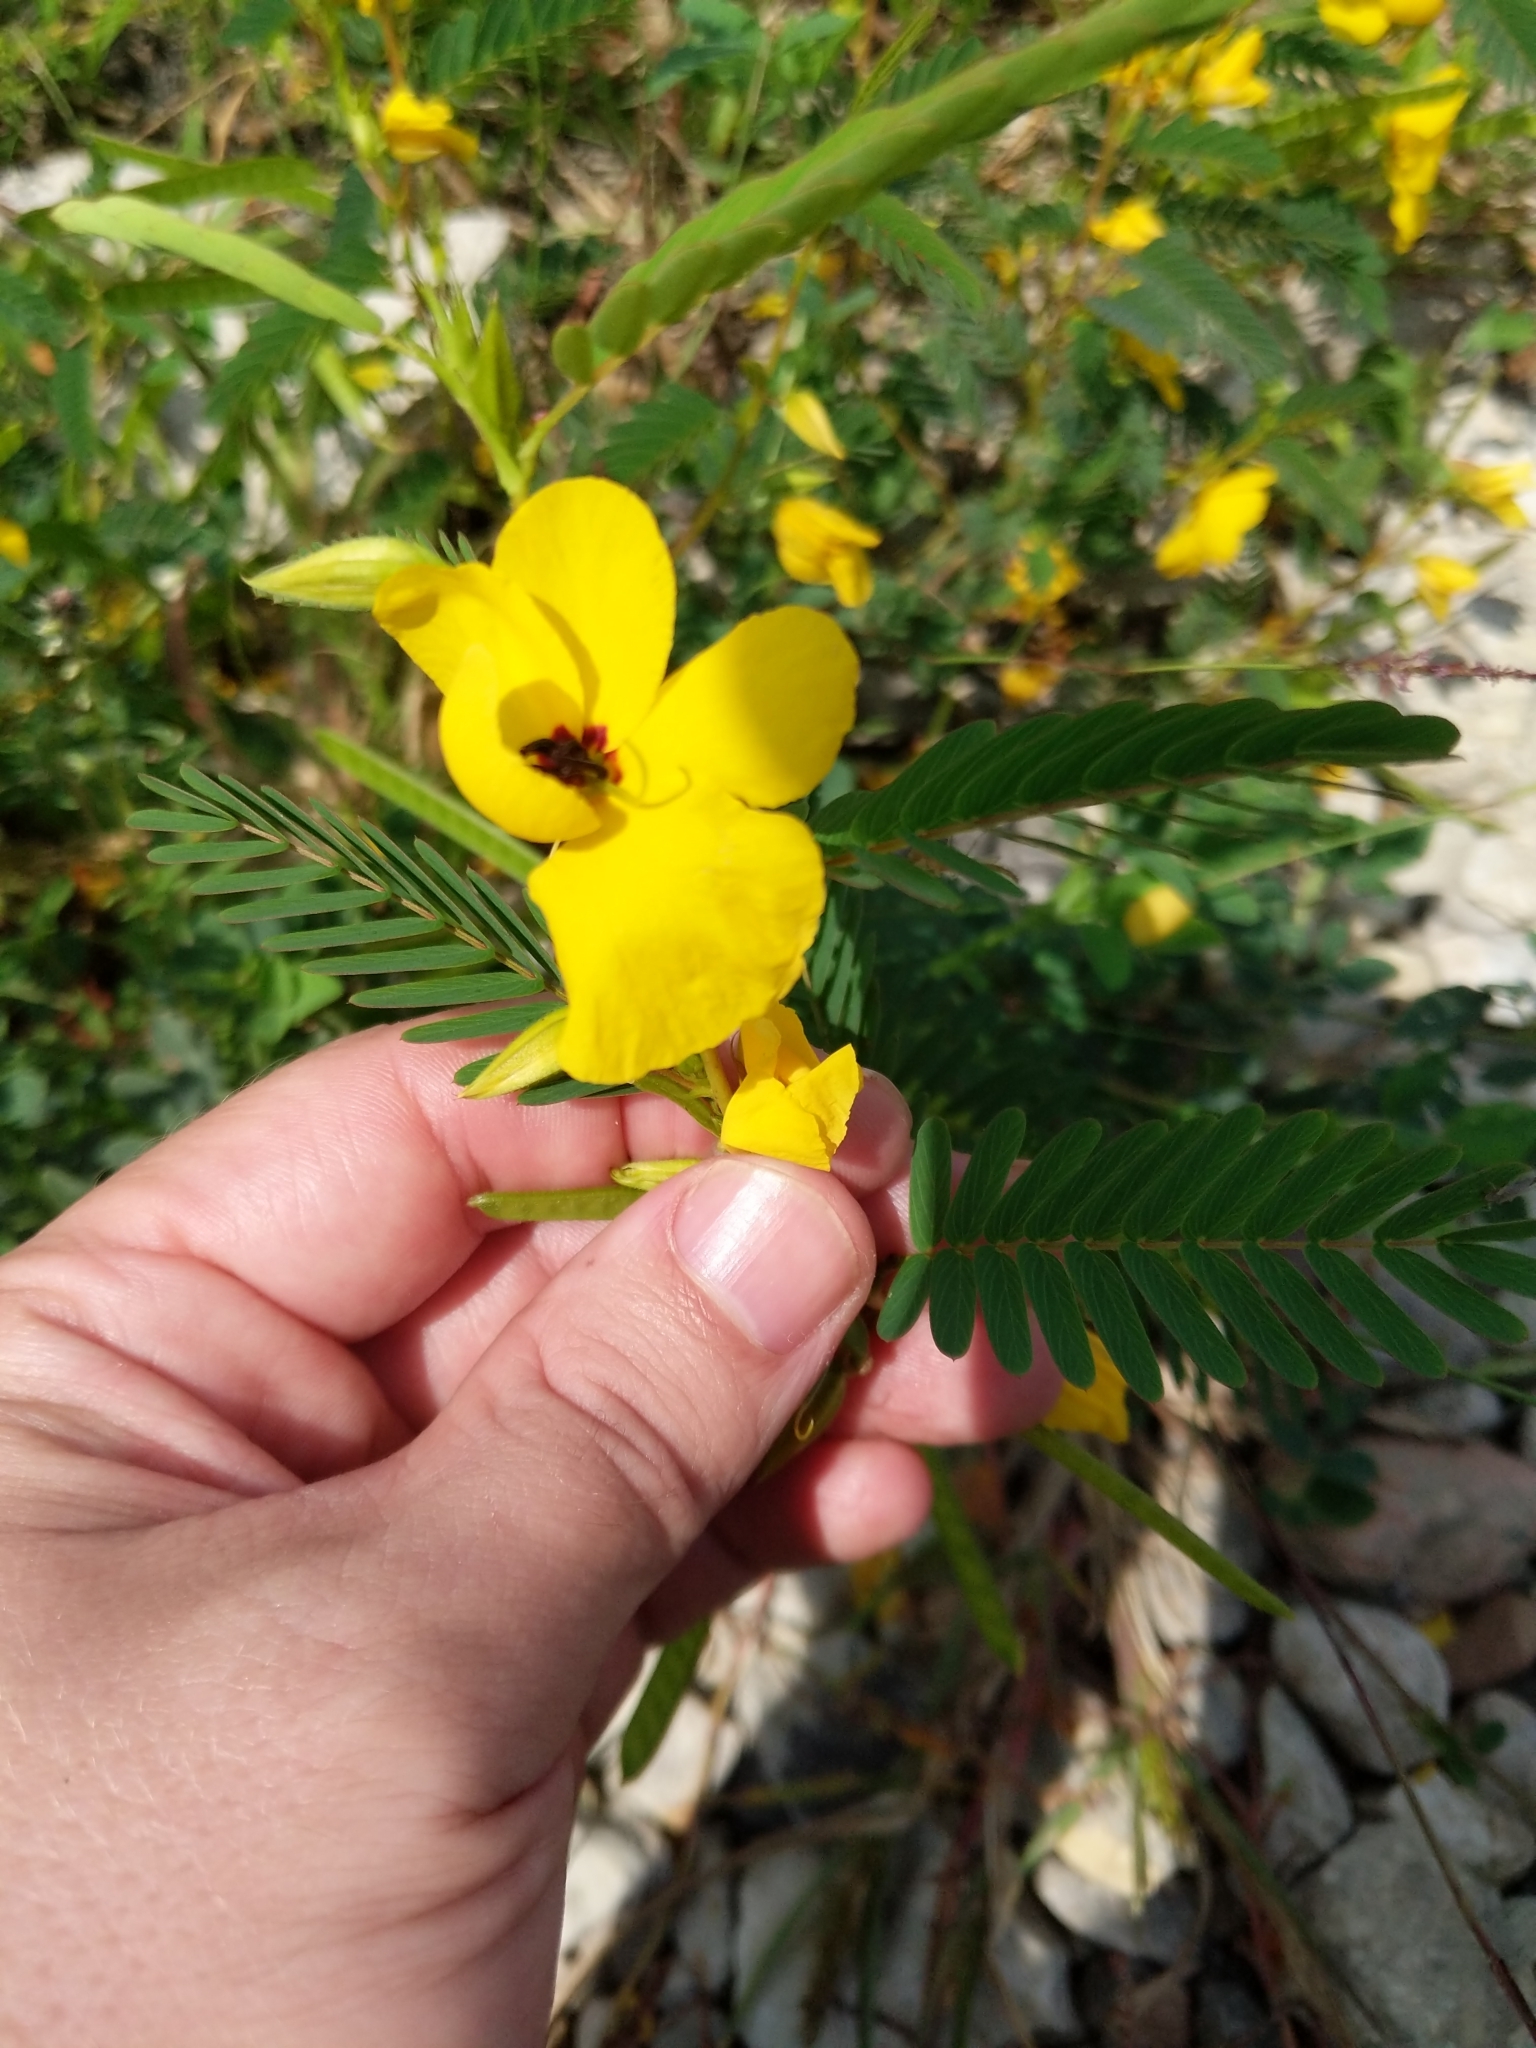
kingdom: Plantae
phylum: Tracheophyta
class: Magnoliopsida
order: Fabales
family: Fabaceae
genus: Chamaecrista
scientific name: Chamaecrista fasciculata
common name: Golden cassia
